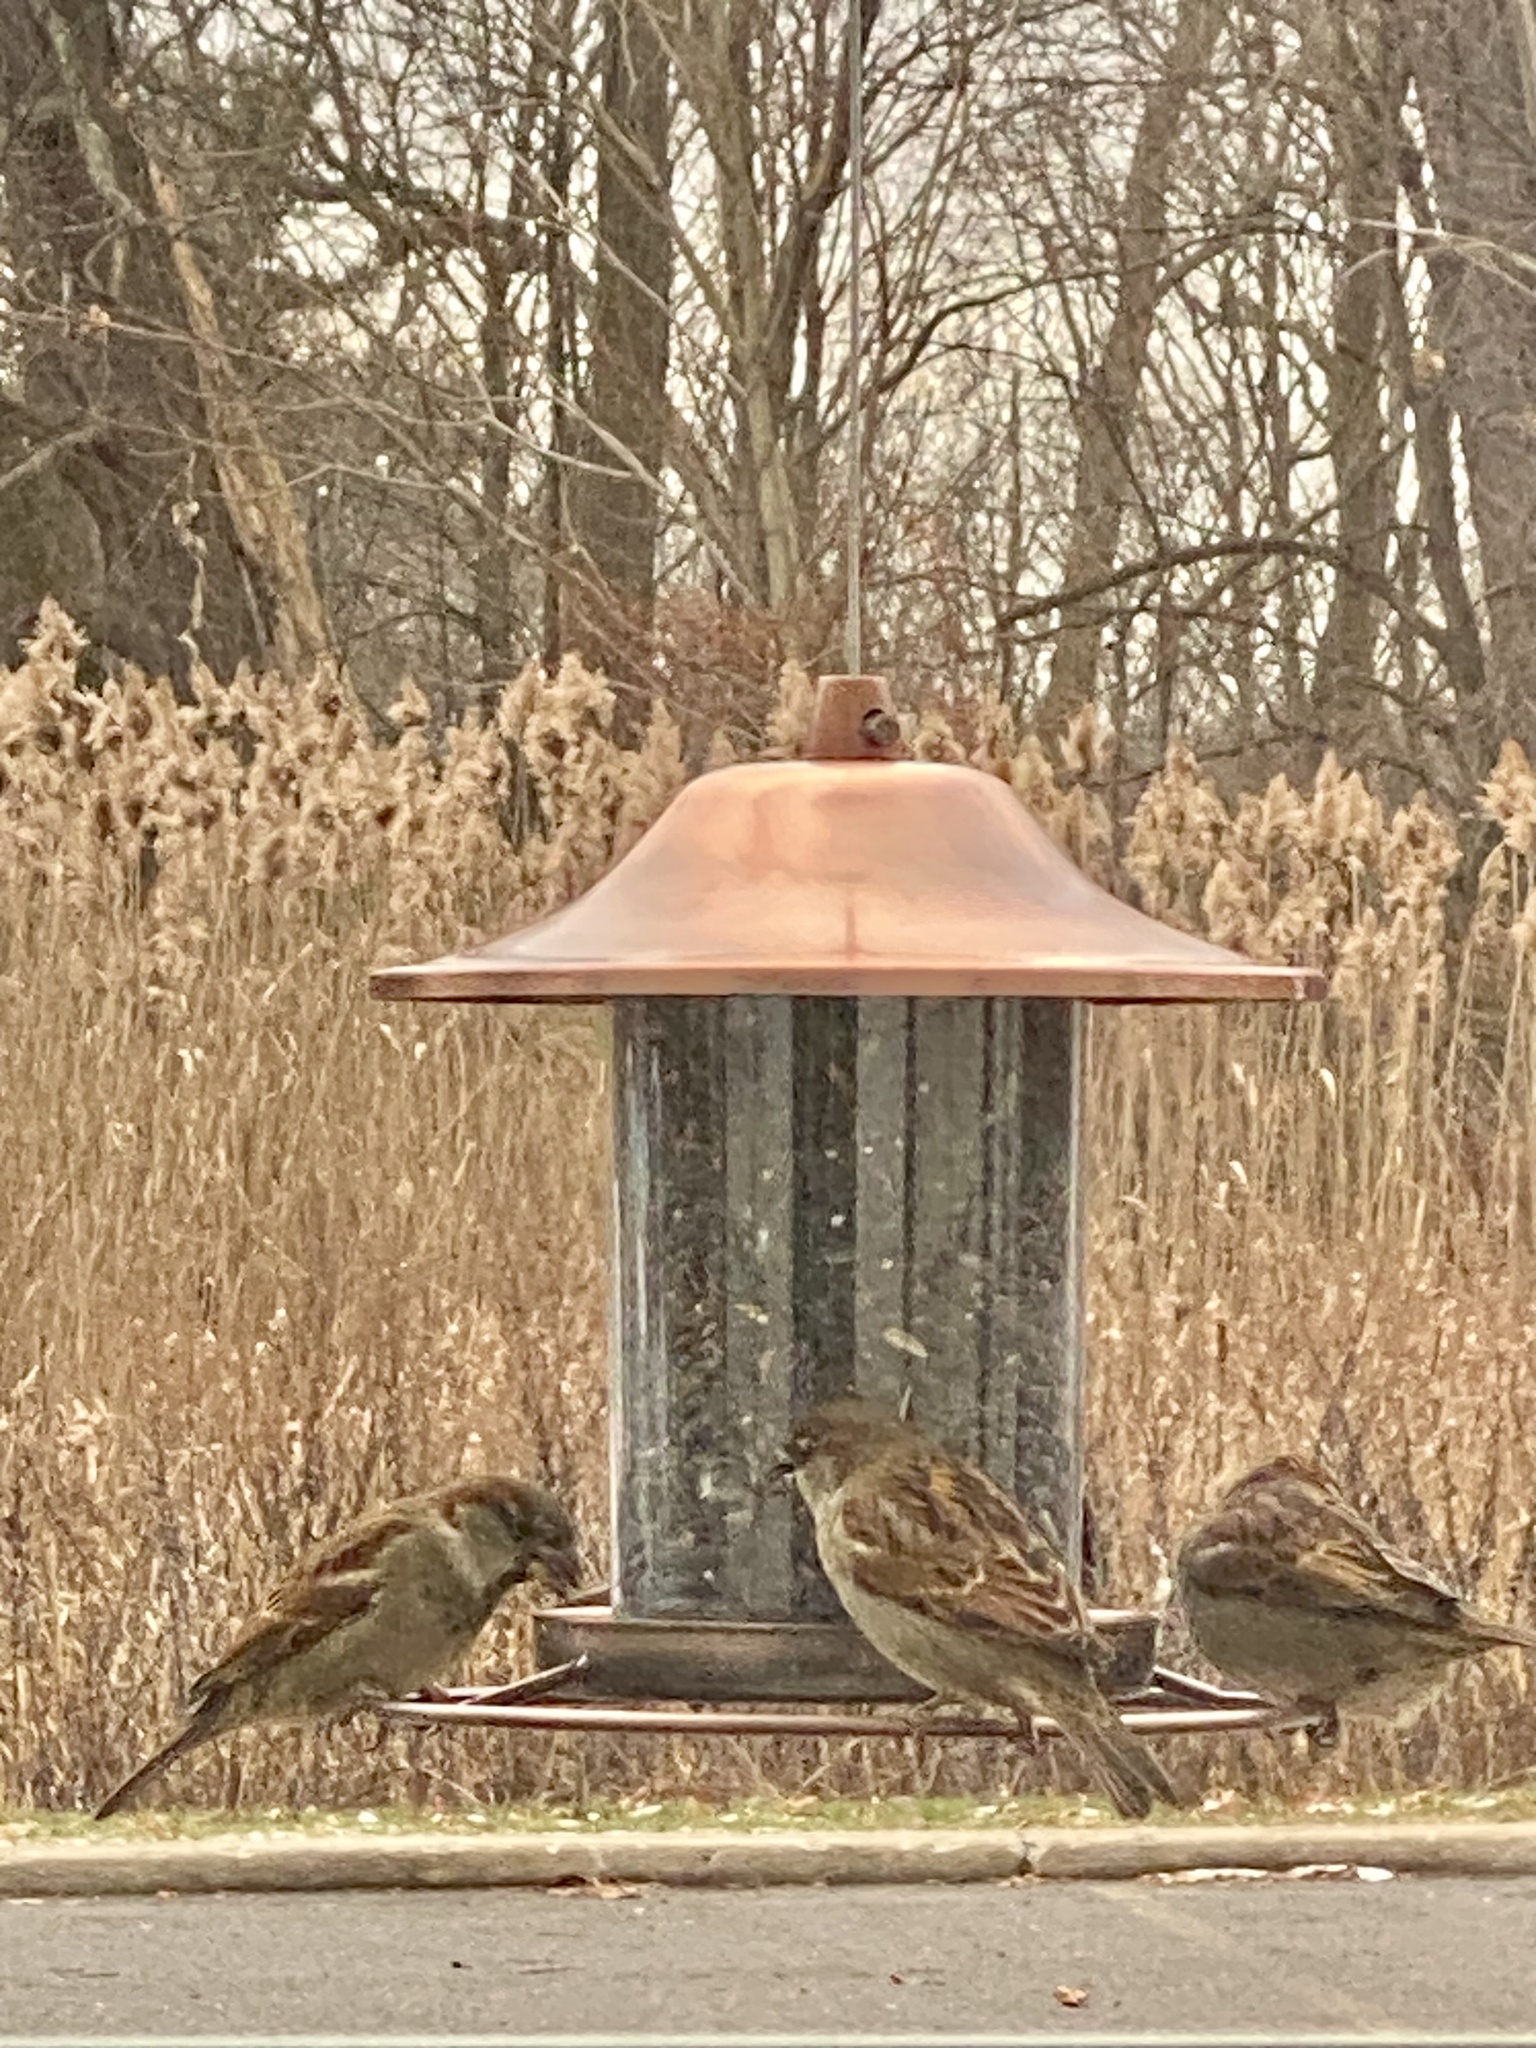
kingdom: Animalia
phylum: Chordata
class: Aves
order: Passeriformes
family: Passeridae
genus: Passer
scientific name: Passer domesticus
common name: House sparrow
